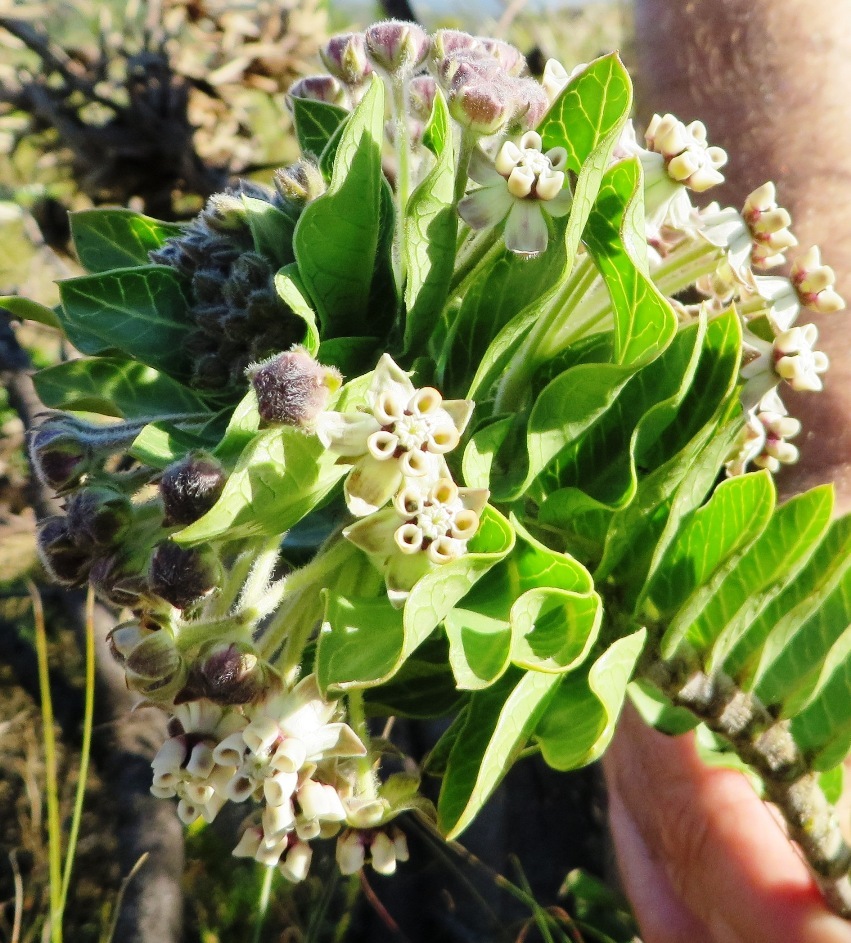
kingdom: Plantae
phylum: Tracheophyta
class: Magnoliopsida
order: Gentianales
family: Apocynaceae
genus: Gomphocarpus
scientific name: Gomphocarpus cancellatus
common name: Wild cotton
